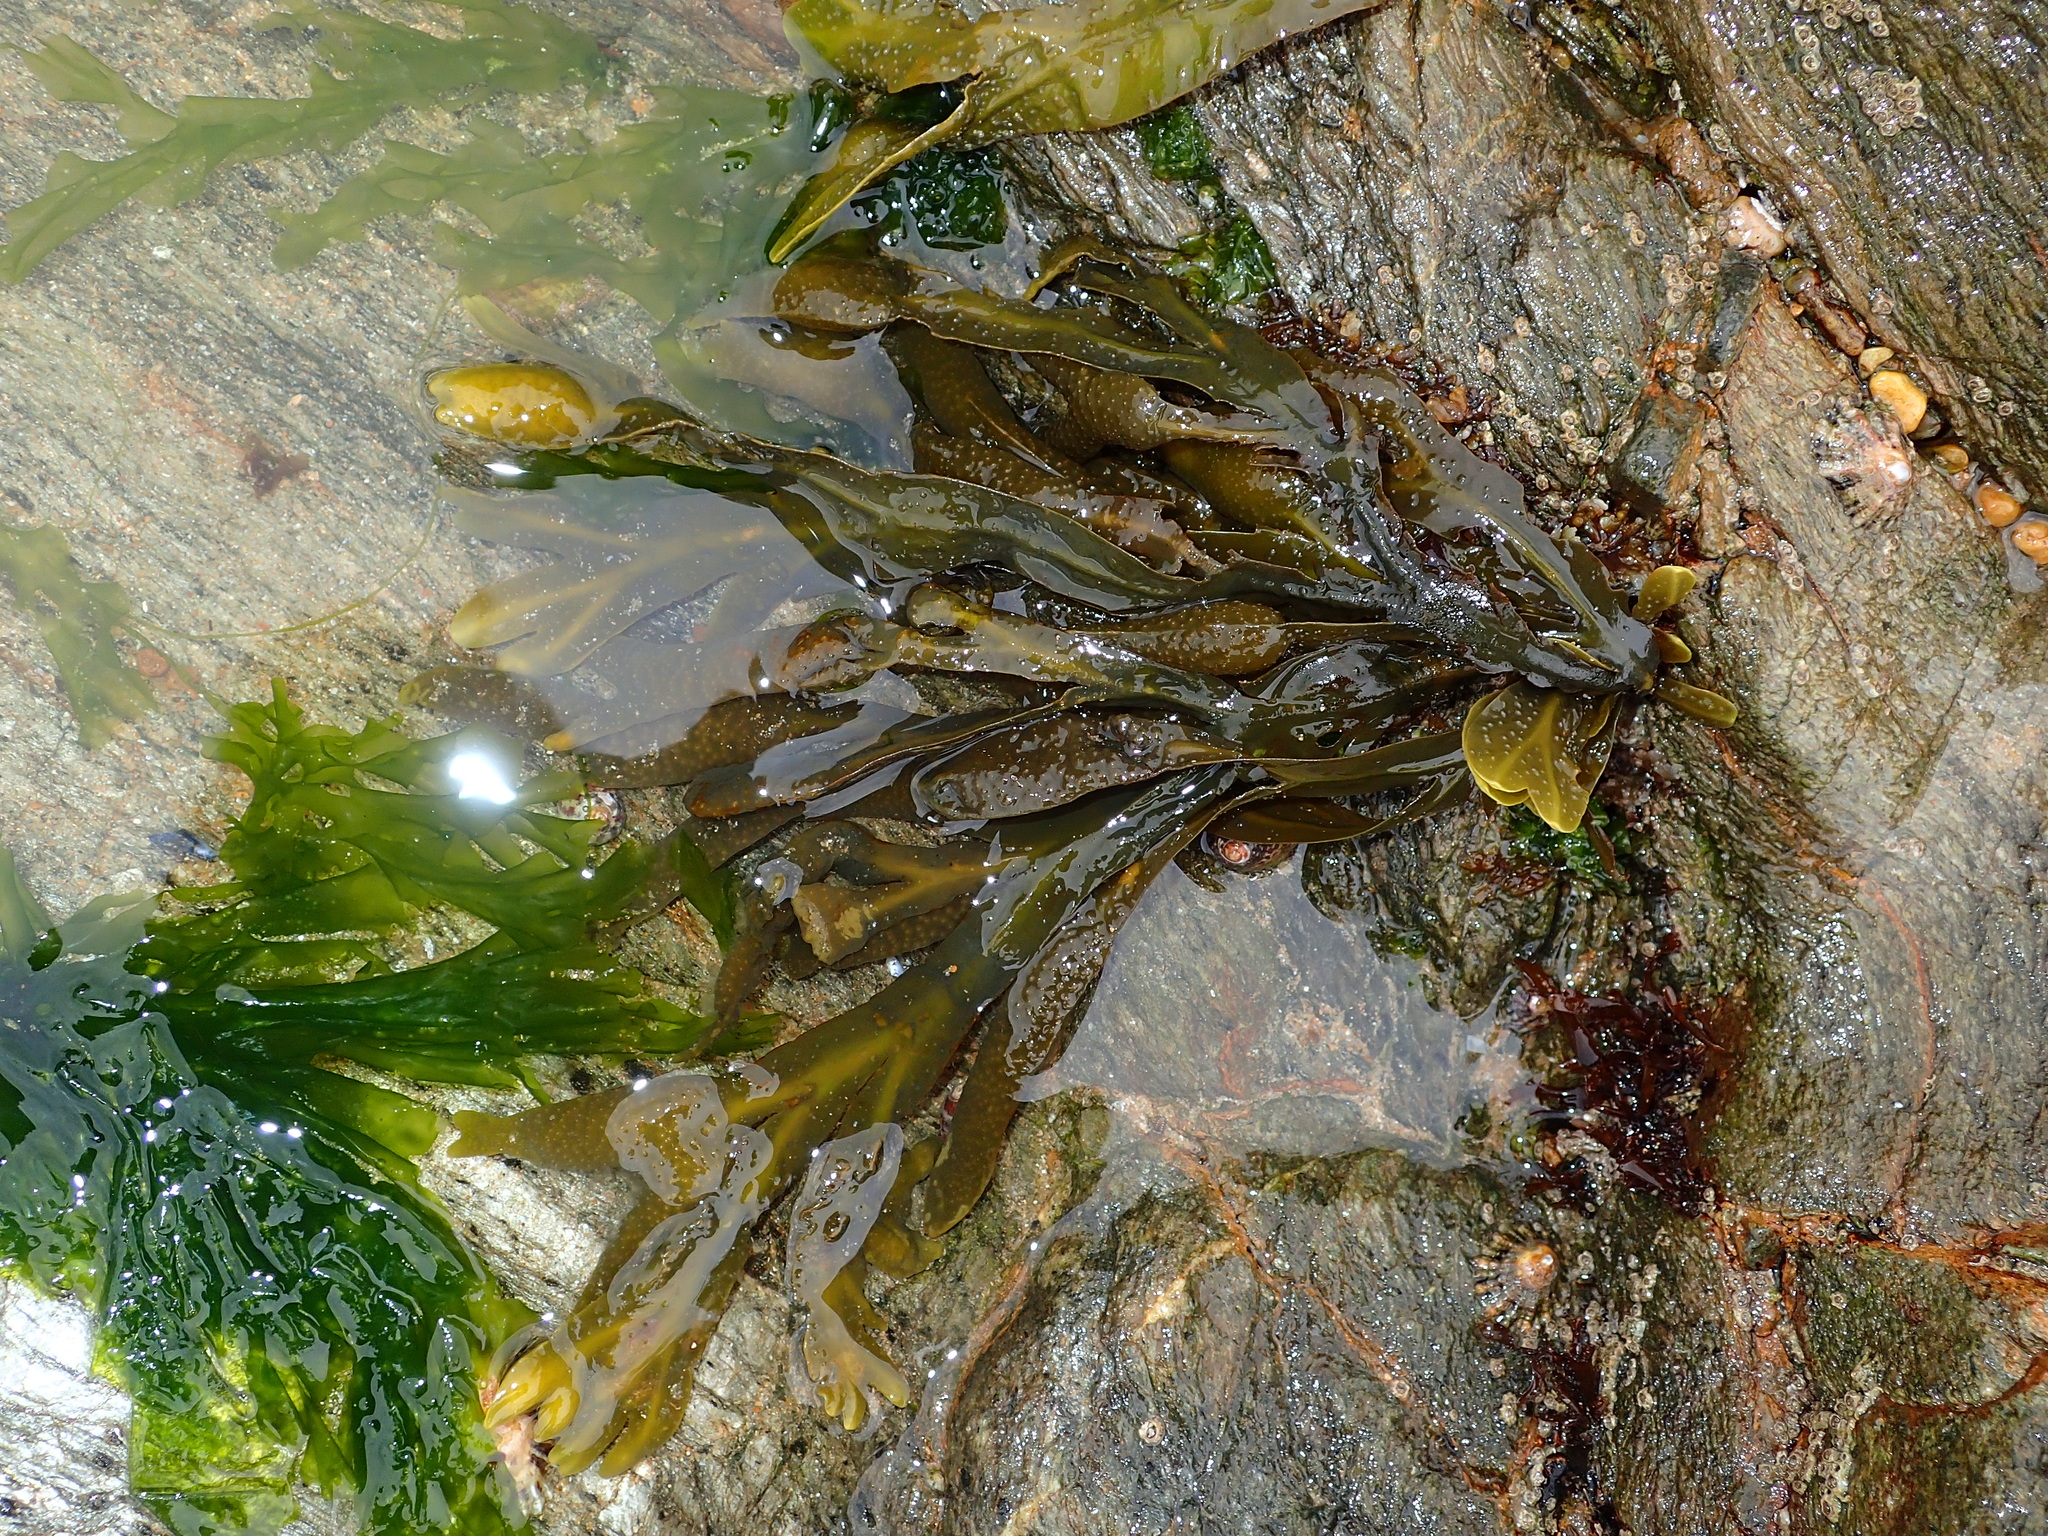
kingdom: Chromista
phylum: Ochrophyta
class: Phaeophyceae
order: Fucales
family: Fucaceae
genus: Fucus
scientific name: Fucus spiralis
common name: Spiral wrack
